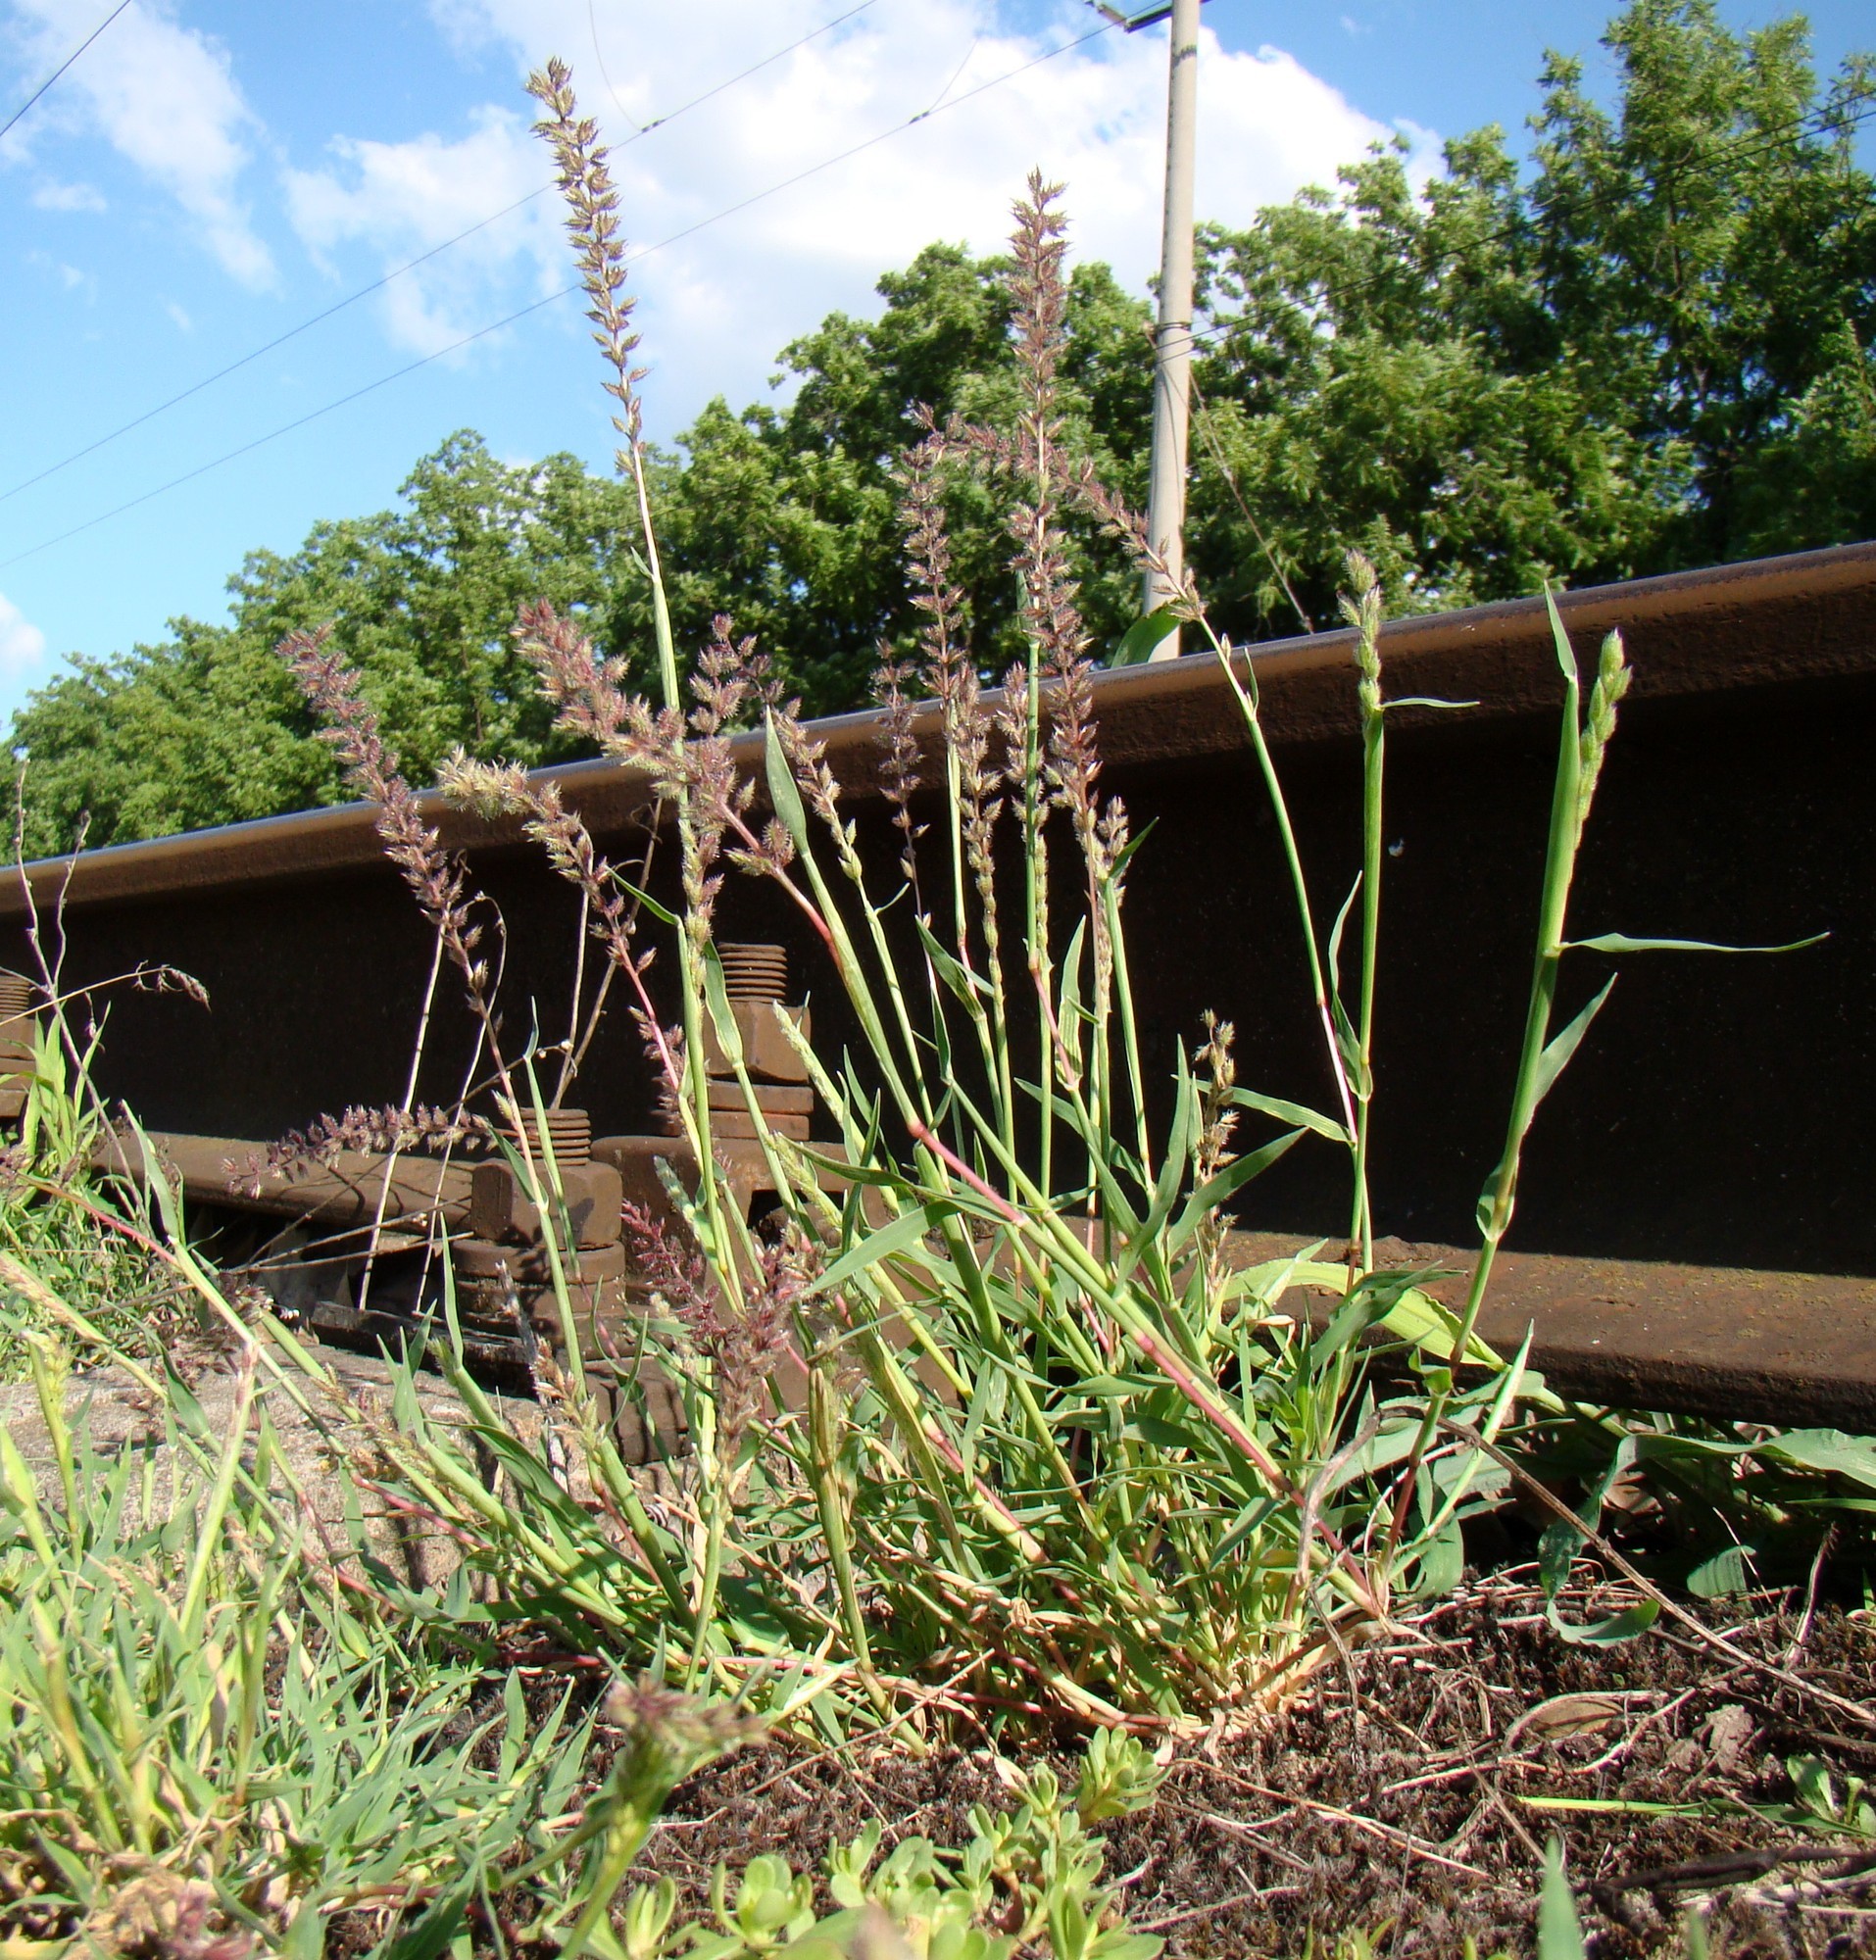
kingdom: Plantae
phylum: Tracheophyta
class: Liliopsida
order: Poales
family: Poaceae
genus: Tragus
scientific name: Tragus racemosus
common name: European bur-grass
